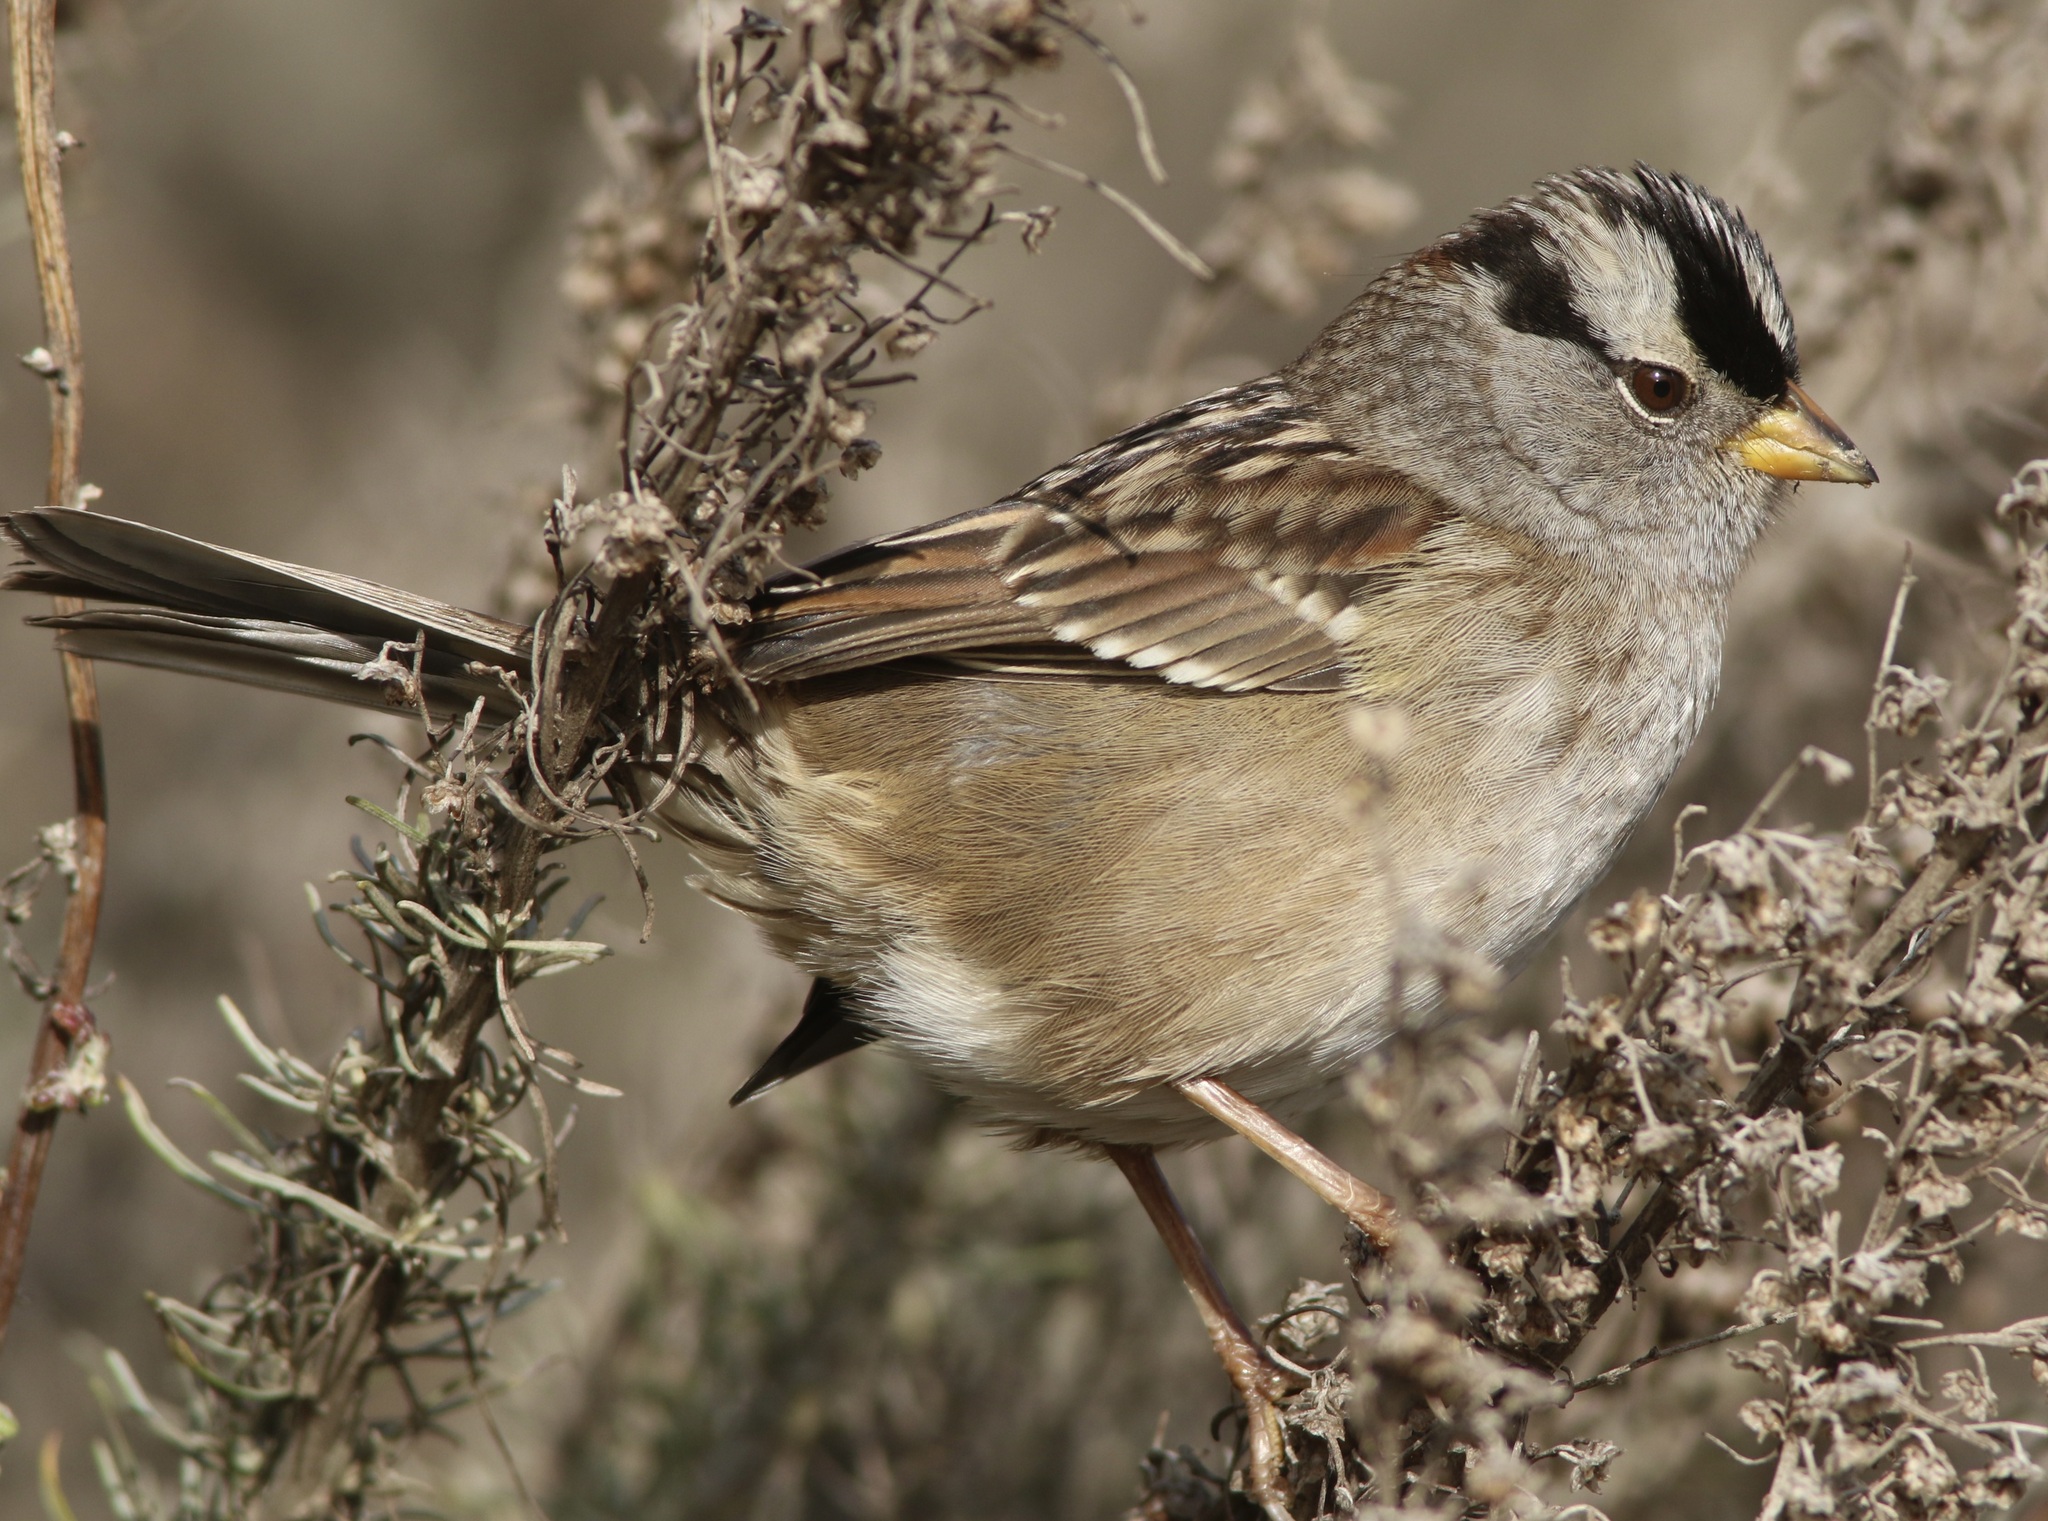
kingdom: Animalia
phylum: Chordata
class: Aves
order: Passeriformes
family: Passerellidae
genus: Zonotrichia
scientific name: Zonotrichia leucophrys
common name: White-crowned sparrow
